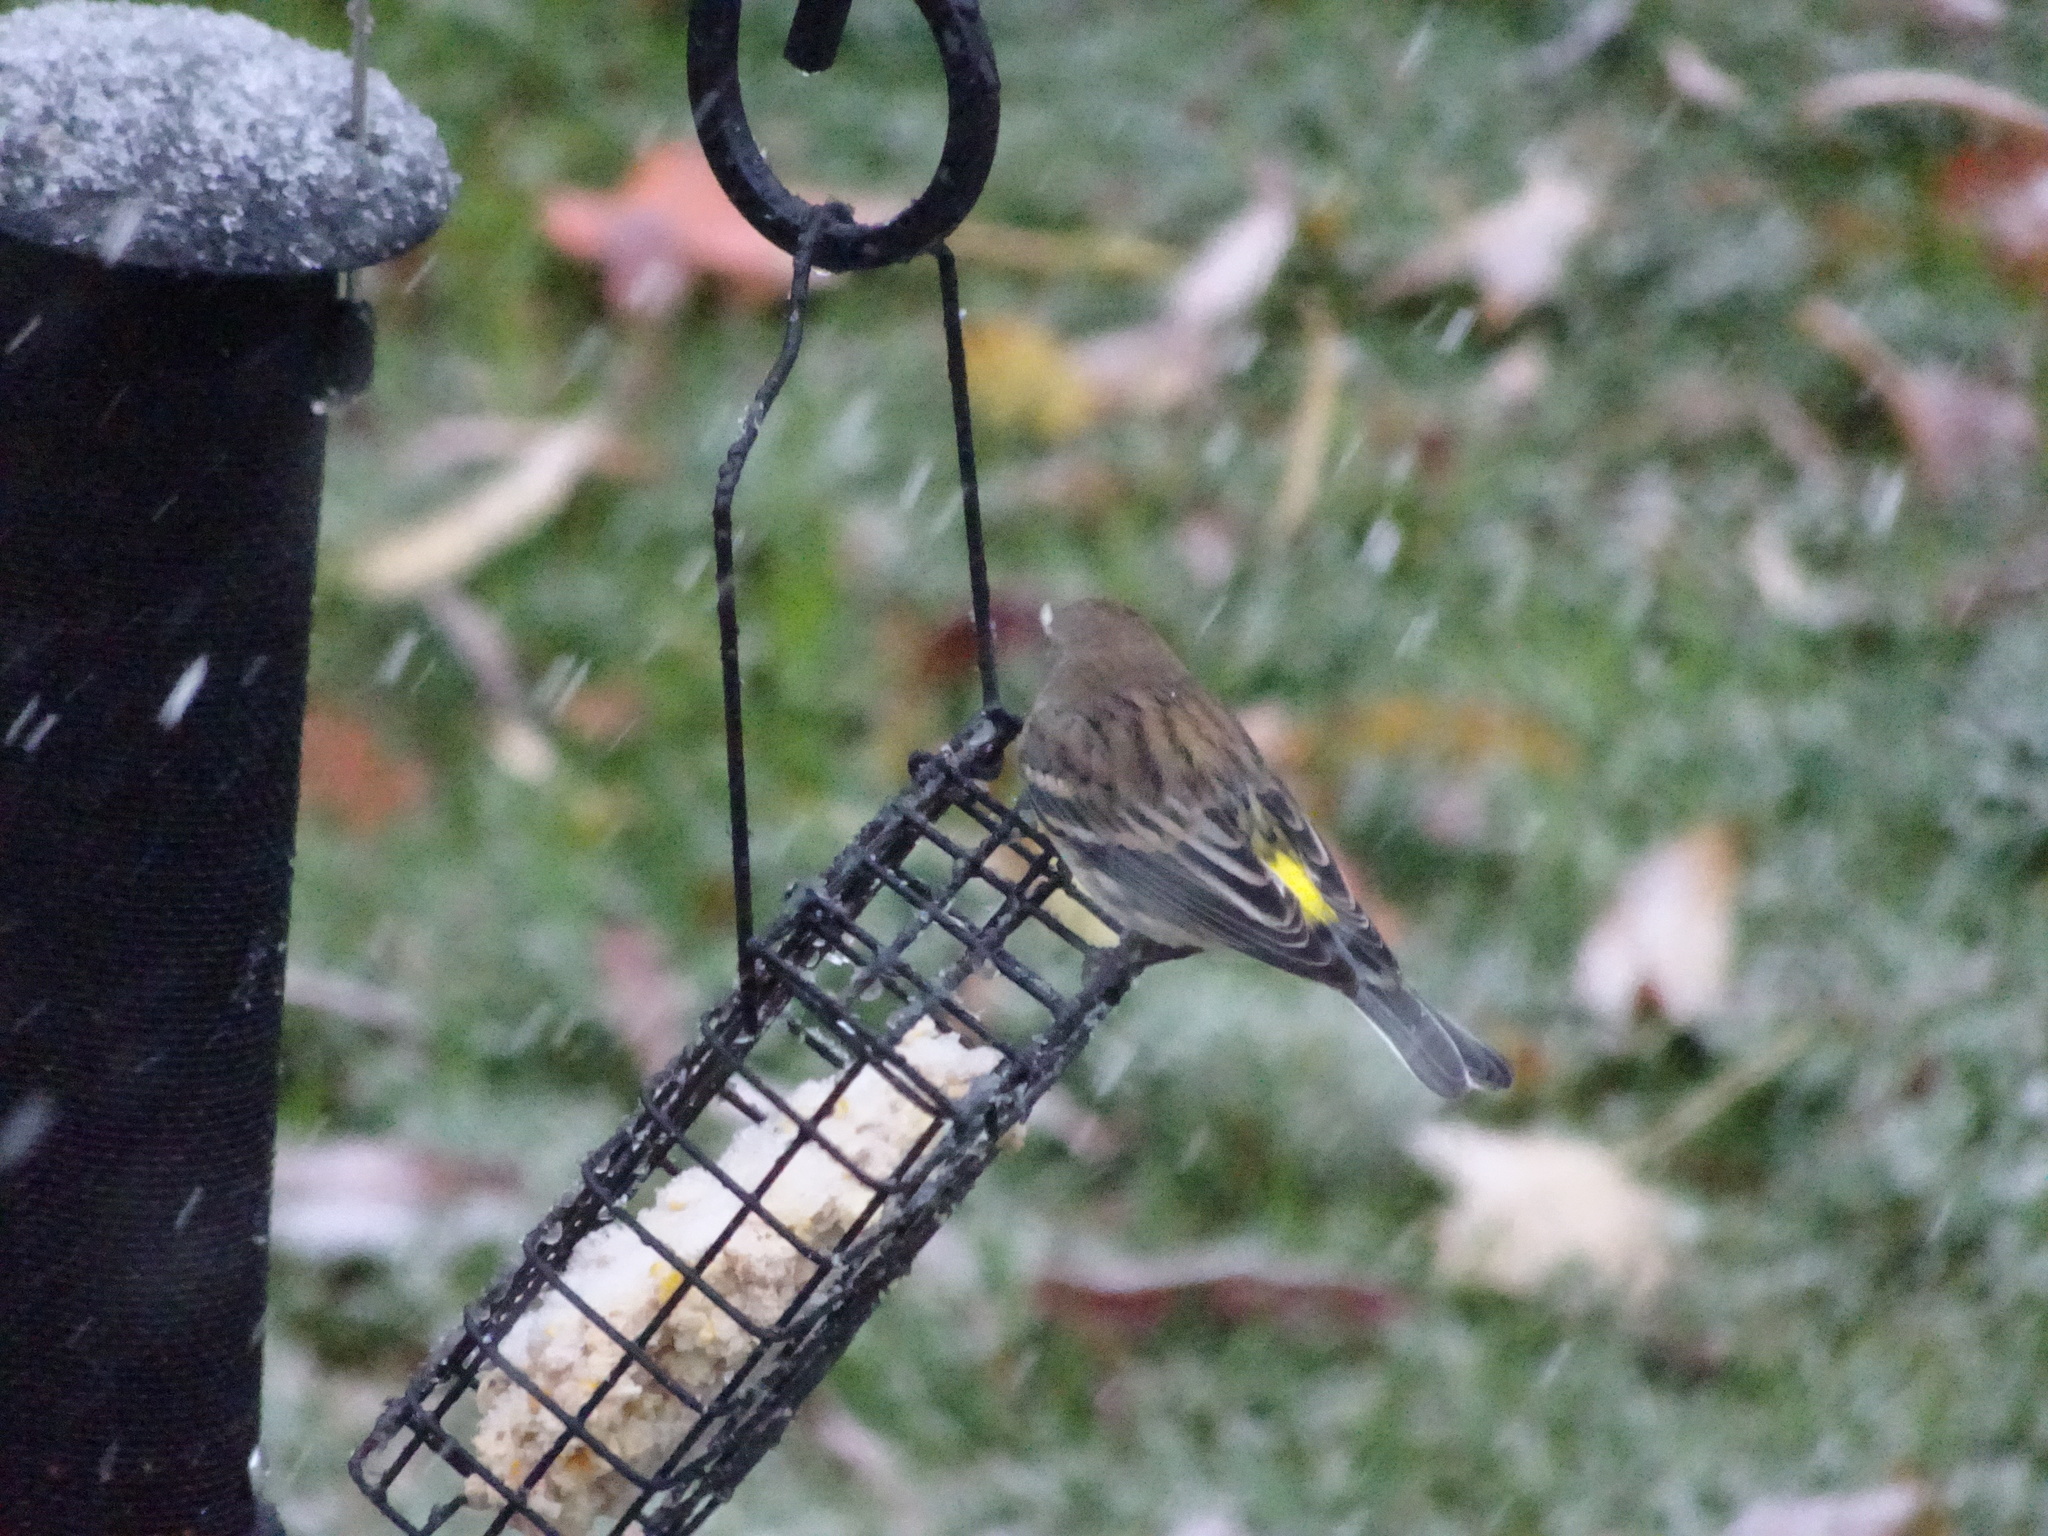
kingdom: Animalia
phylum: Chordata
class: Aves
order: Passeriformes
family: Parulidae
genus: Setophaga
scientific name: Setophaga coronata
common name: Myrtle warbler
